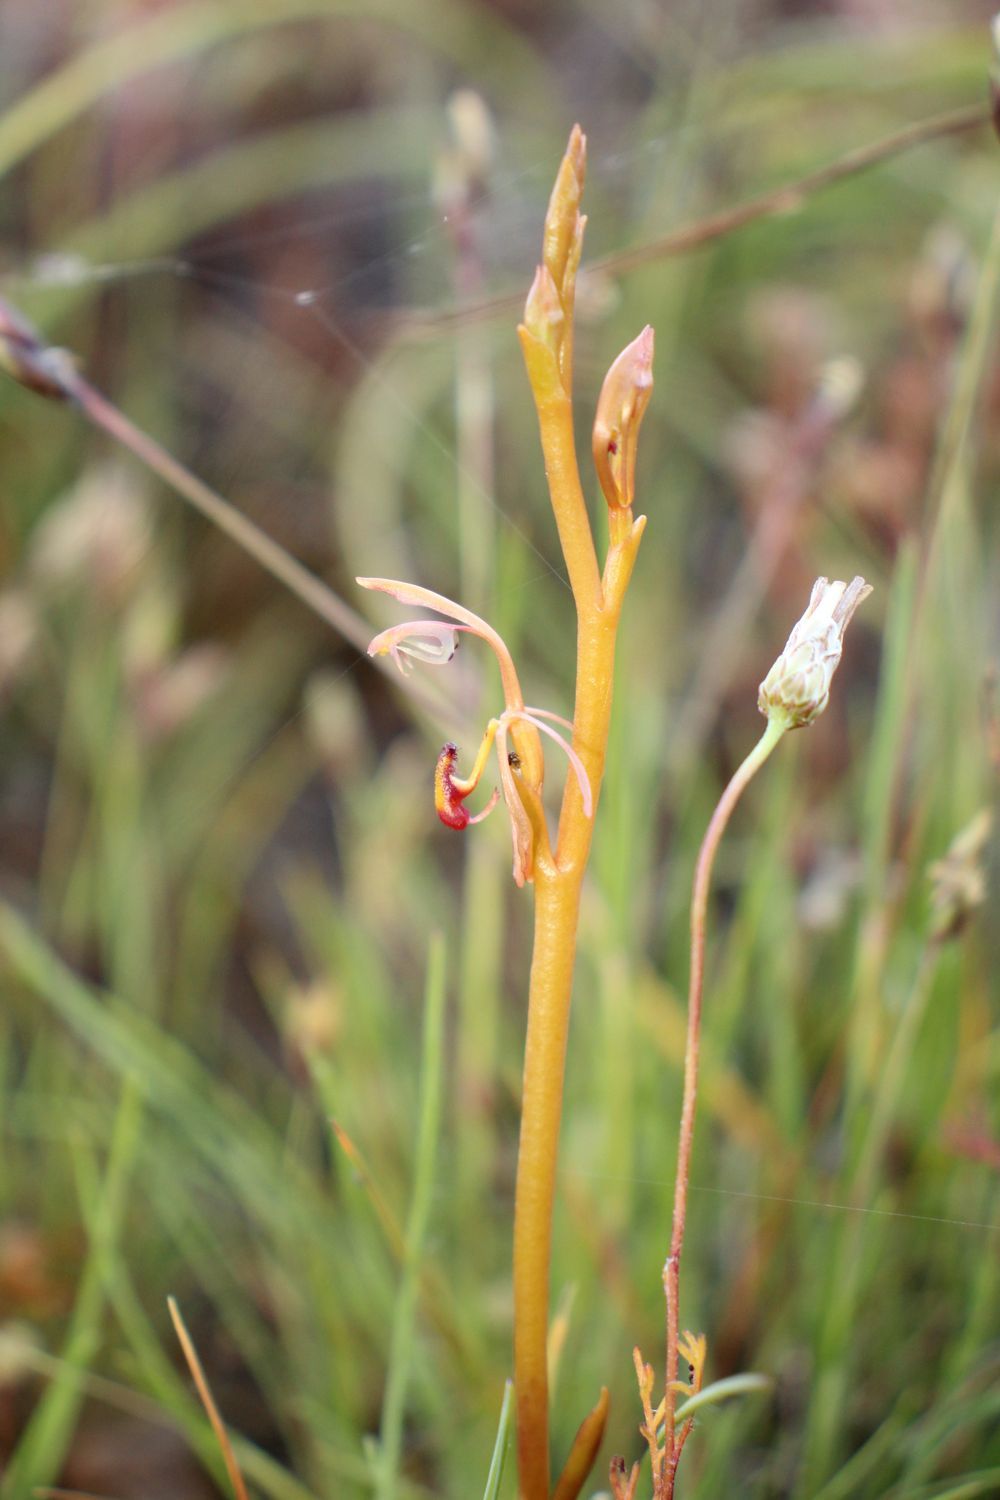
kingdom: Plantae
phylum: Tracheophyta
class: Liliopsida
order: Asparagales
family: Orchidaceae
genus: Spiculaea
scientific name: Spiculaea ciliata
